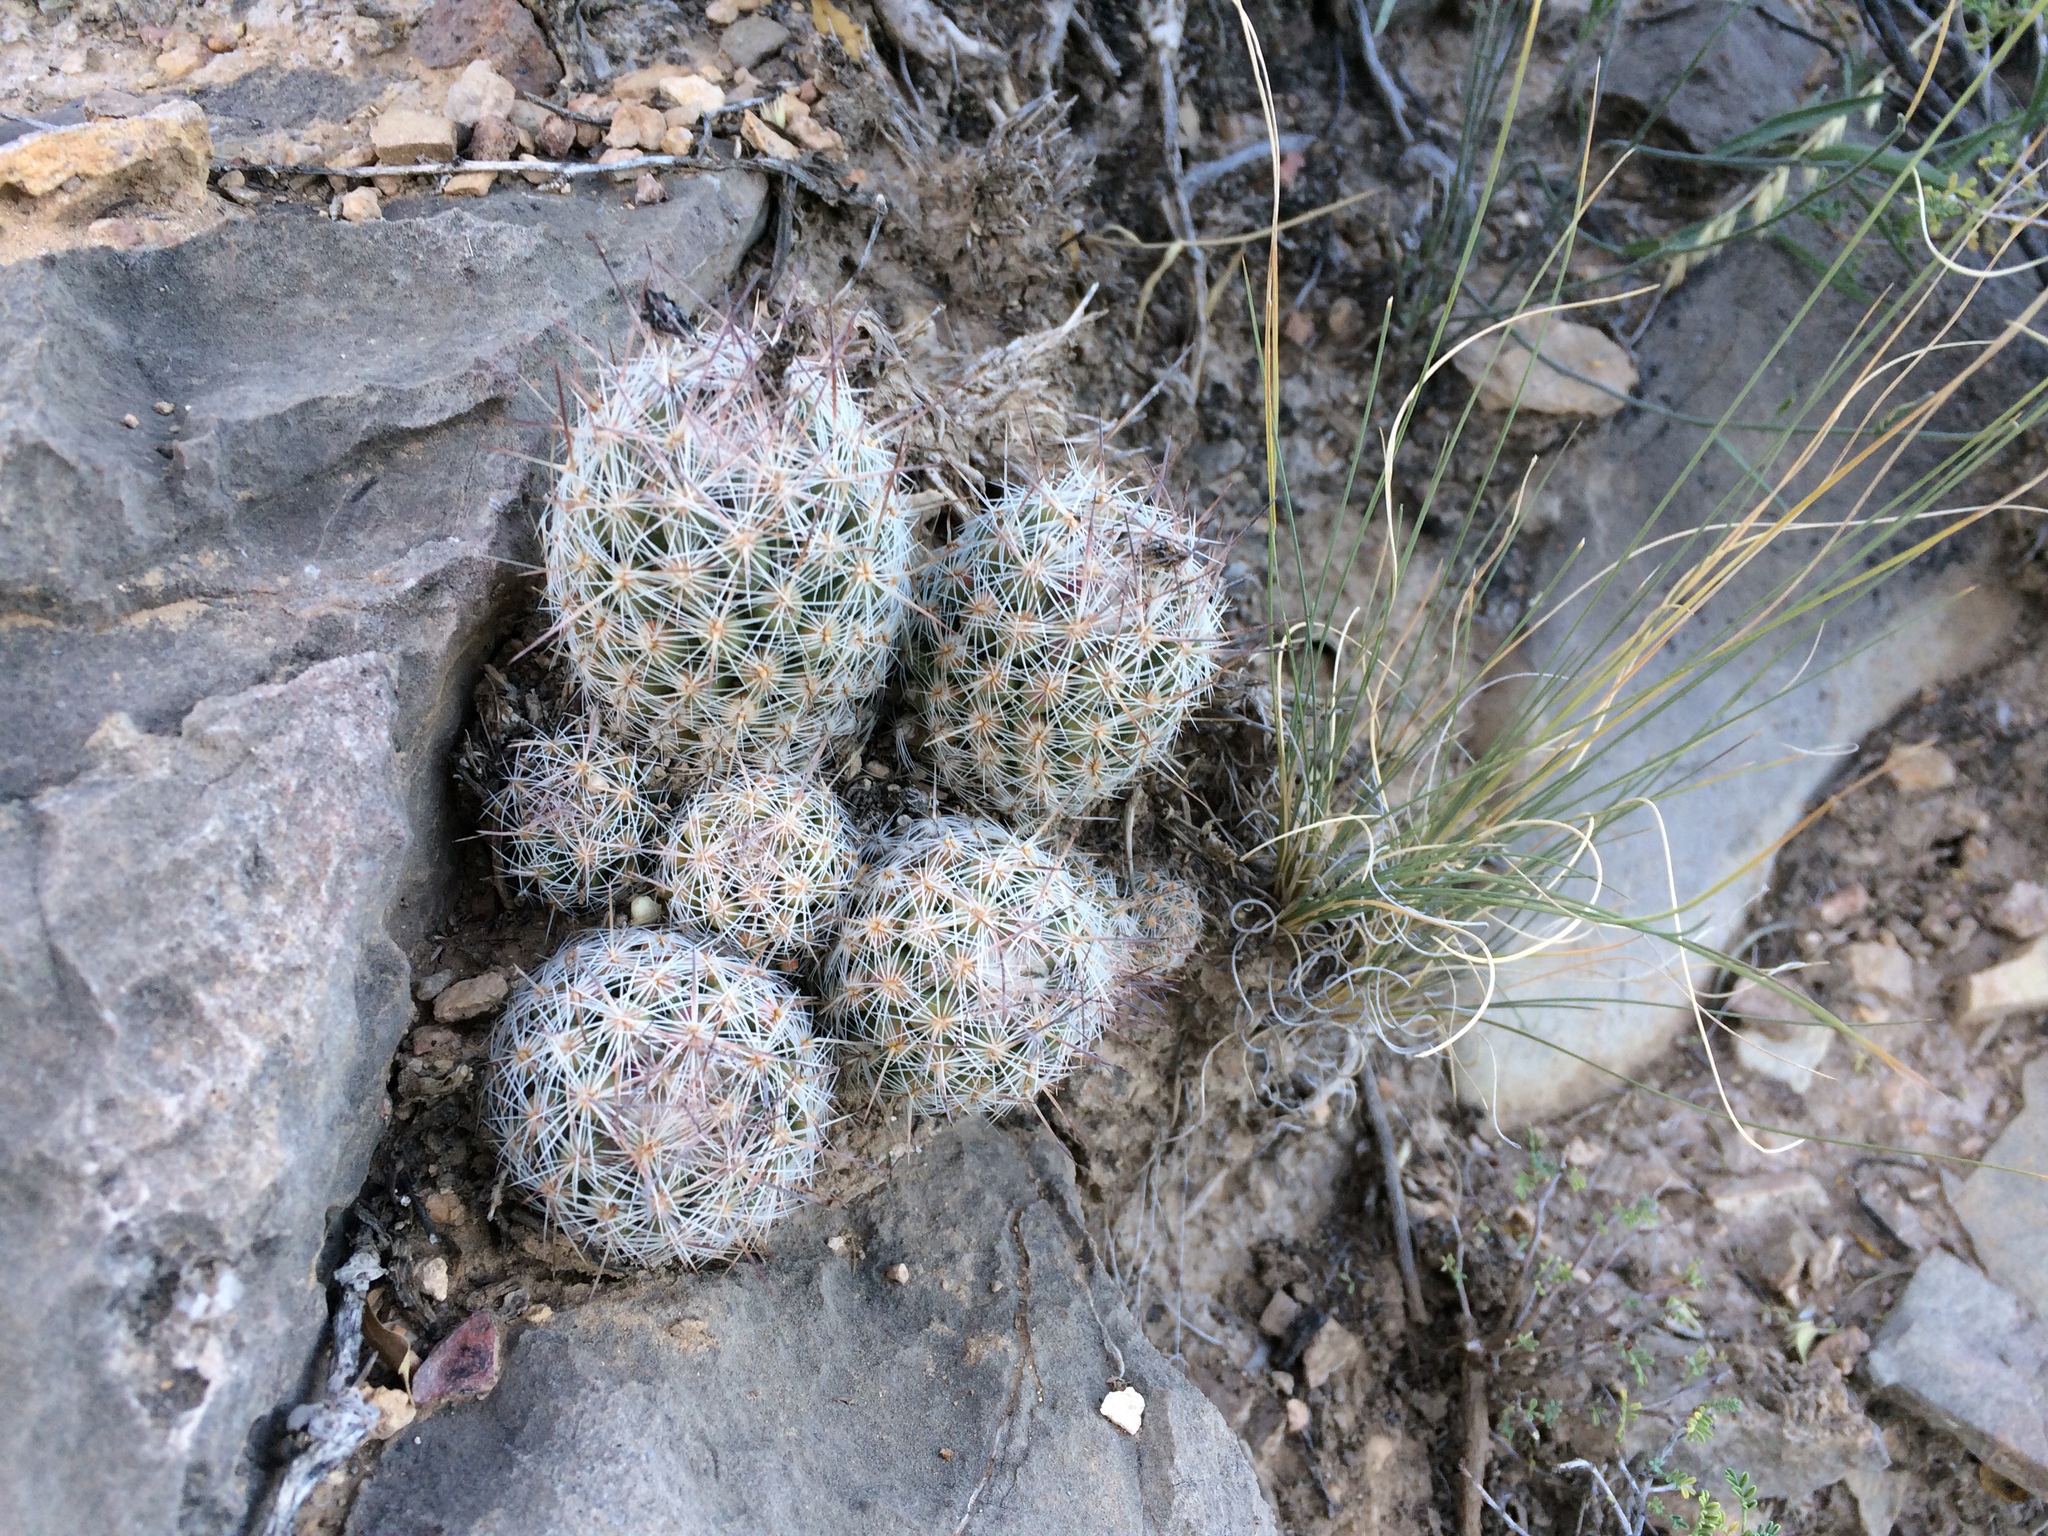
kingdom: Plantae
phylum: Tracheophyta
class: Magnoliopsida
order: Caryophyllales
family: Cactaceae
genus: Pelecyphora
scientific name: Pelecyphora tuberculosa
